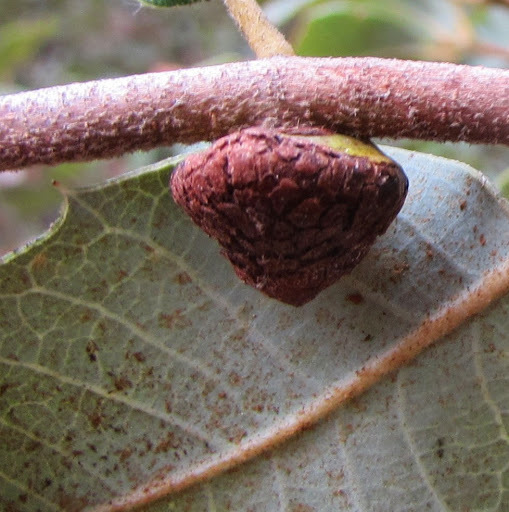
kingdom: Animalia
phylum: Arthropoda
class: Insecta
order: Hymenoptera
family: Cynipidae
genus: Disholandricus
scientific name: Disholandricus
